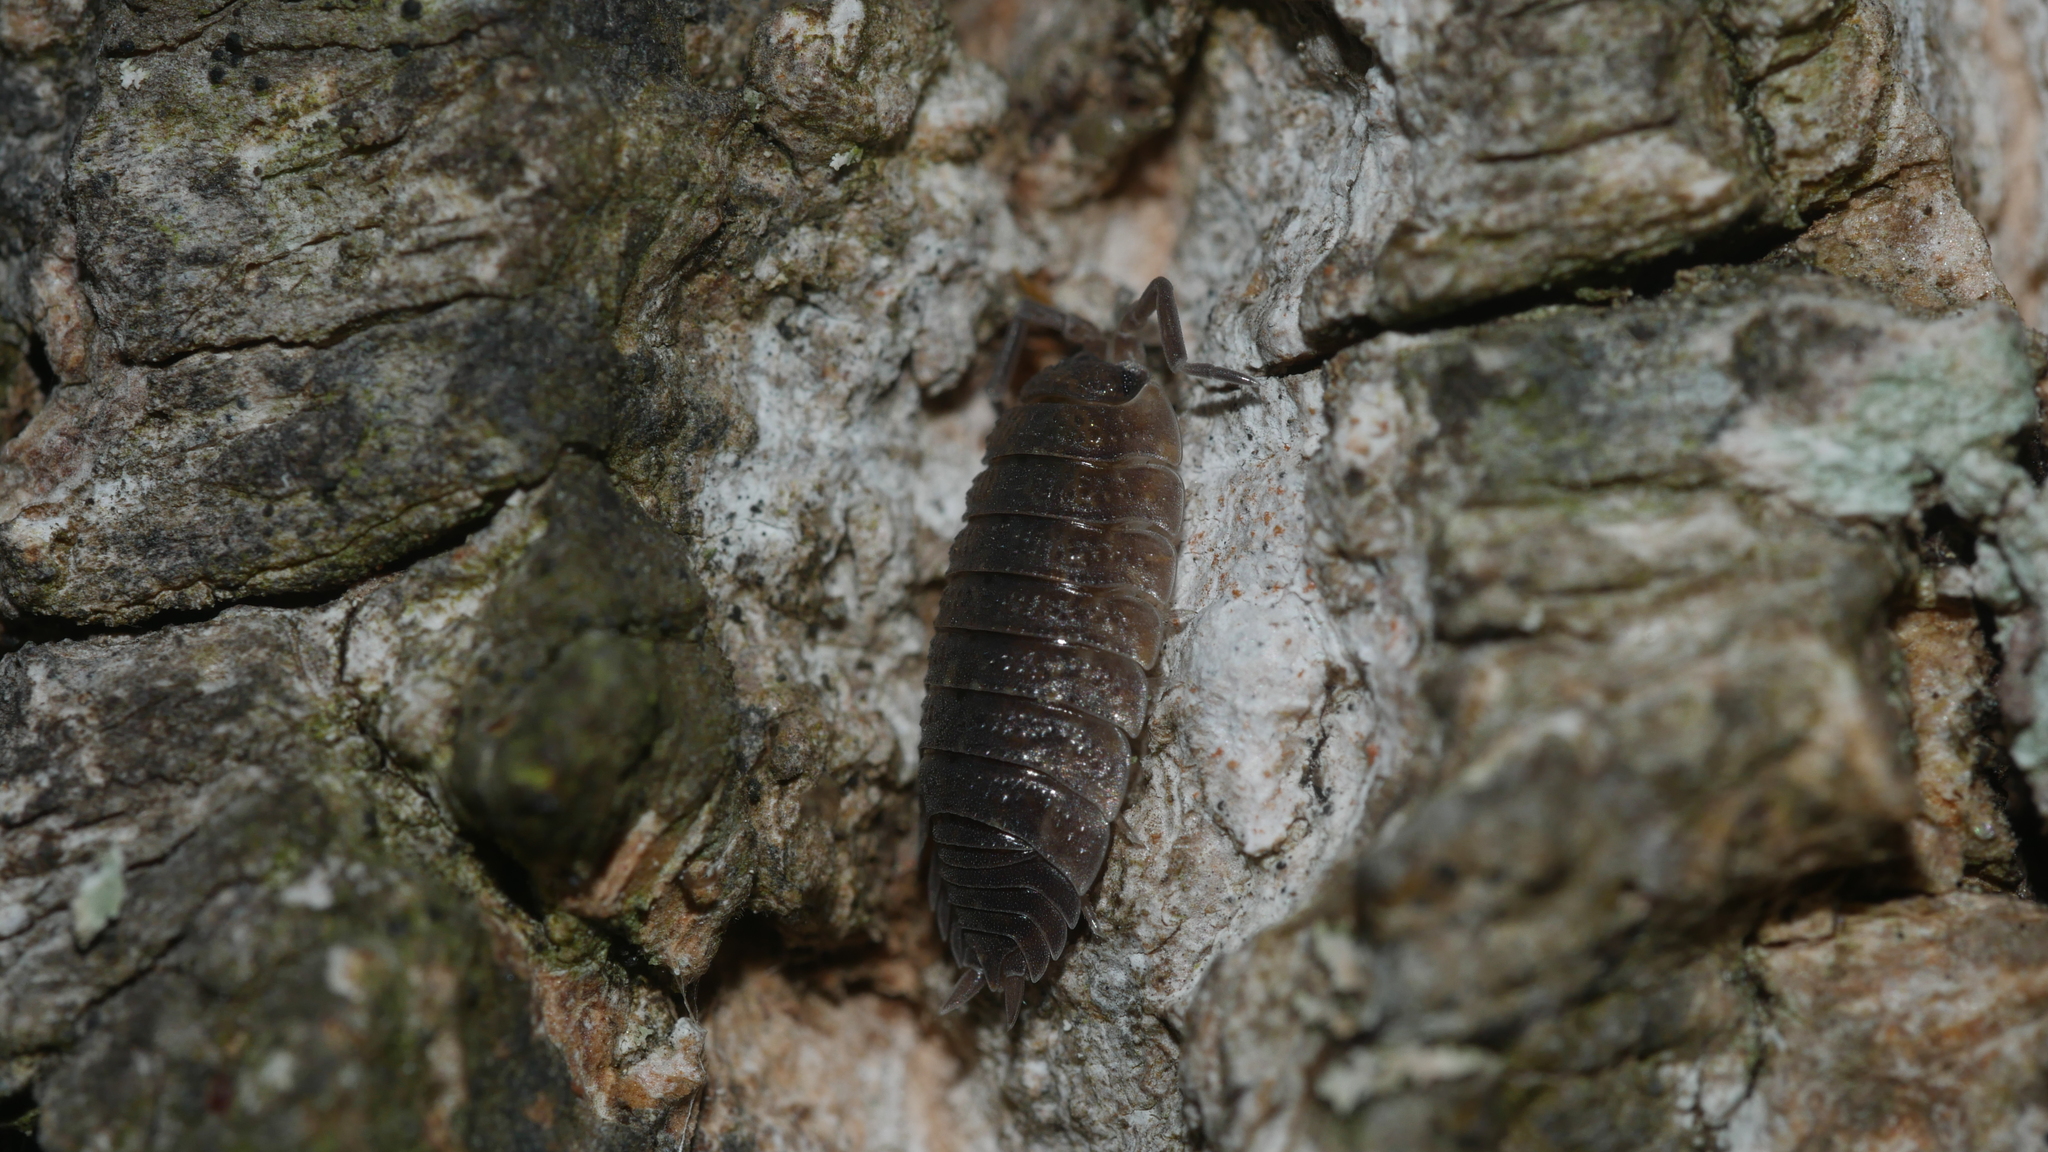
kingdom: Animalia
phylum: Arthropoda
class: Malacostraca
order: Isopoda
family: Porcellionidae
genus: Porcellio
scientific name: Porcellio scaber
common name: Common rough woodlouse
